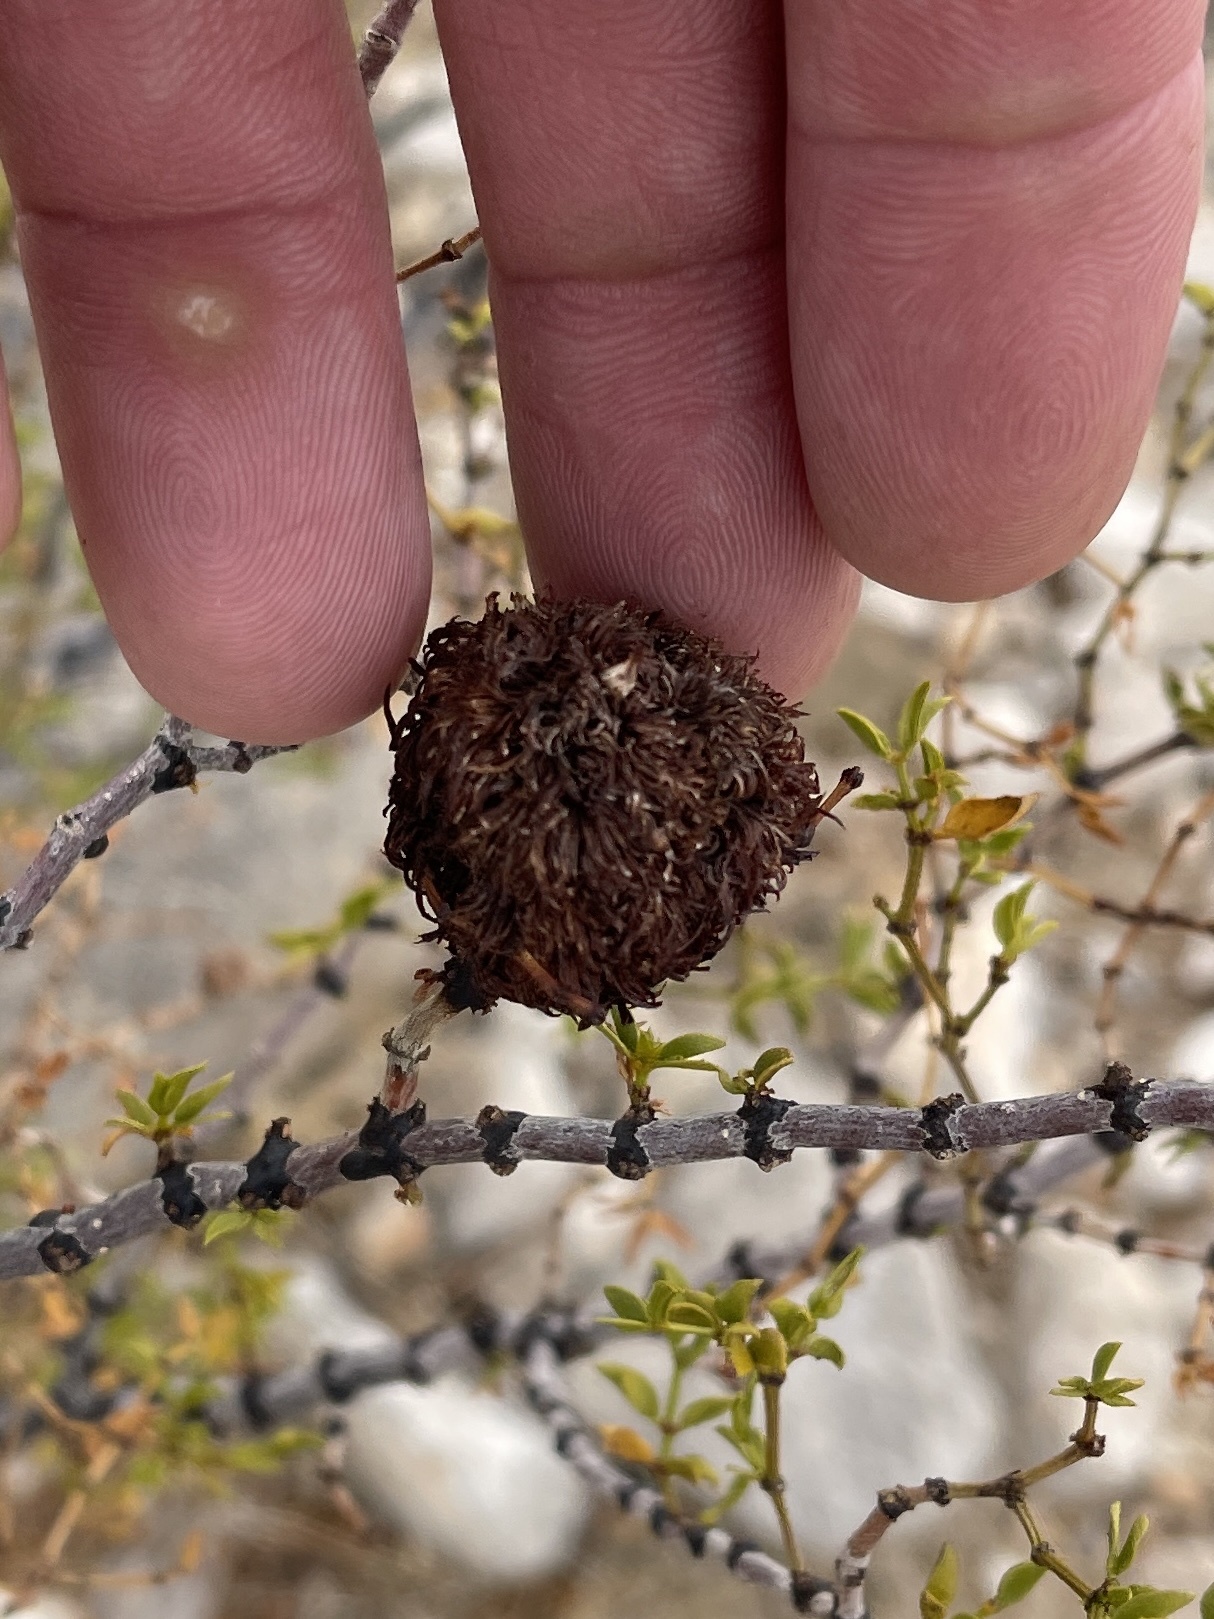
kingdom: Animalia
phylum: Arthropoda
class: Insecta
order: Diptera
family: Cecidomyiidae
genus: Asphondylia
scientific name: Asphondylia auripila
